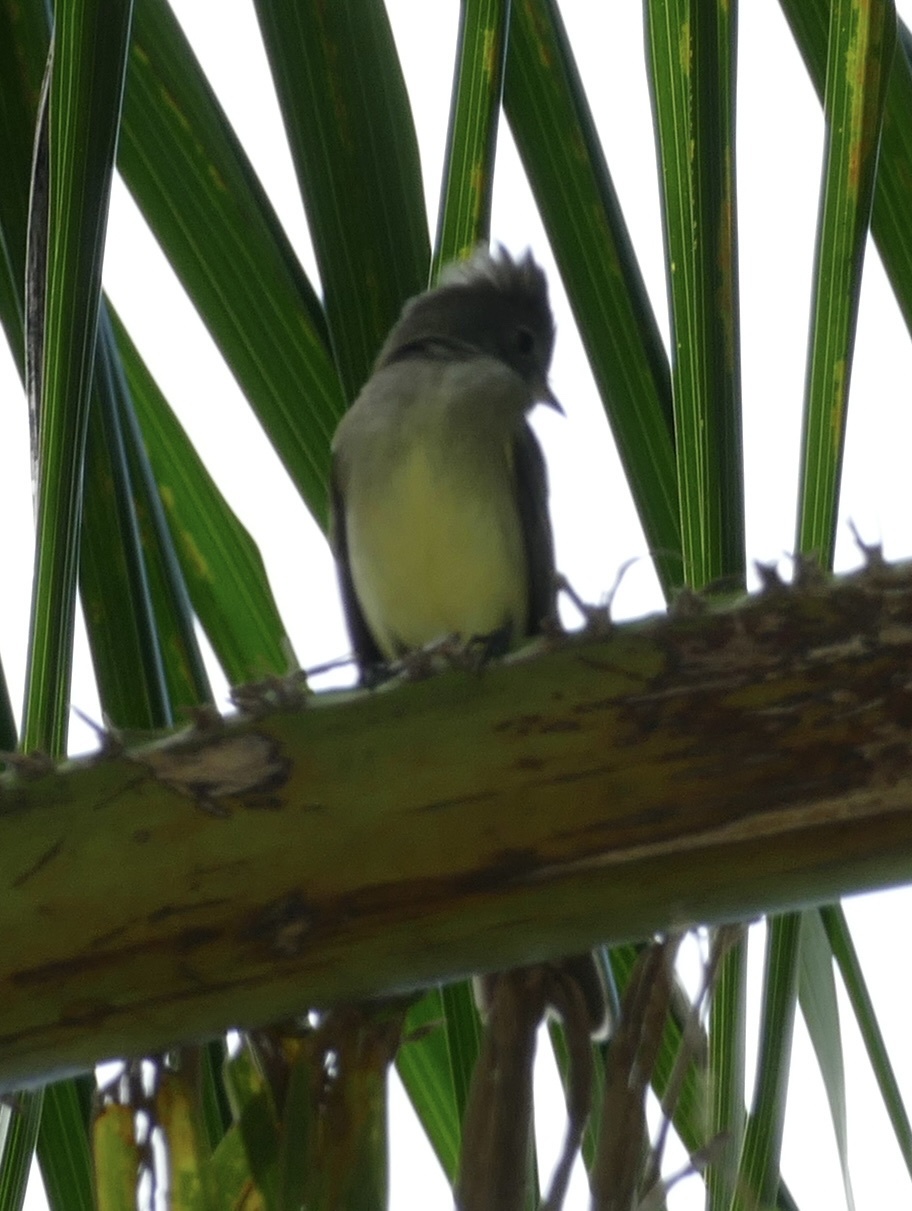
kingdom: Animalia
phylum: Chordata
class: Aves
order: Passeriformes
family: Tyrannidae
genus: Elaenia
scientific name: Elaenia flavogaster
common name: Yellow-bellied elaenia
